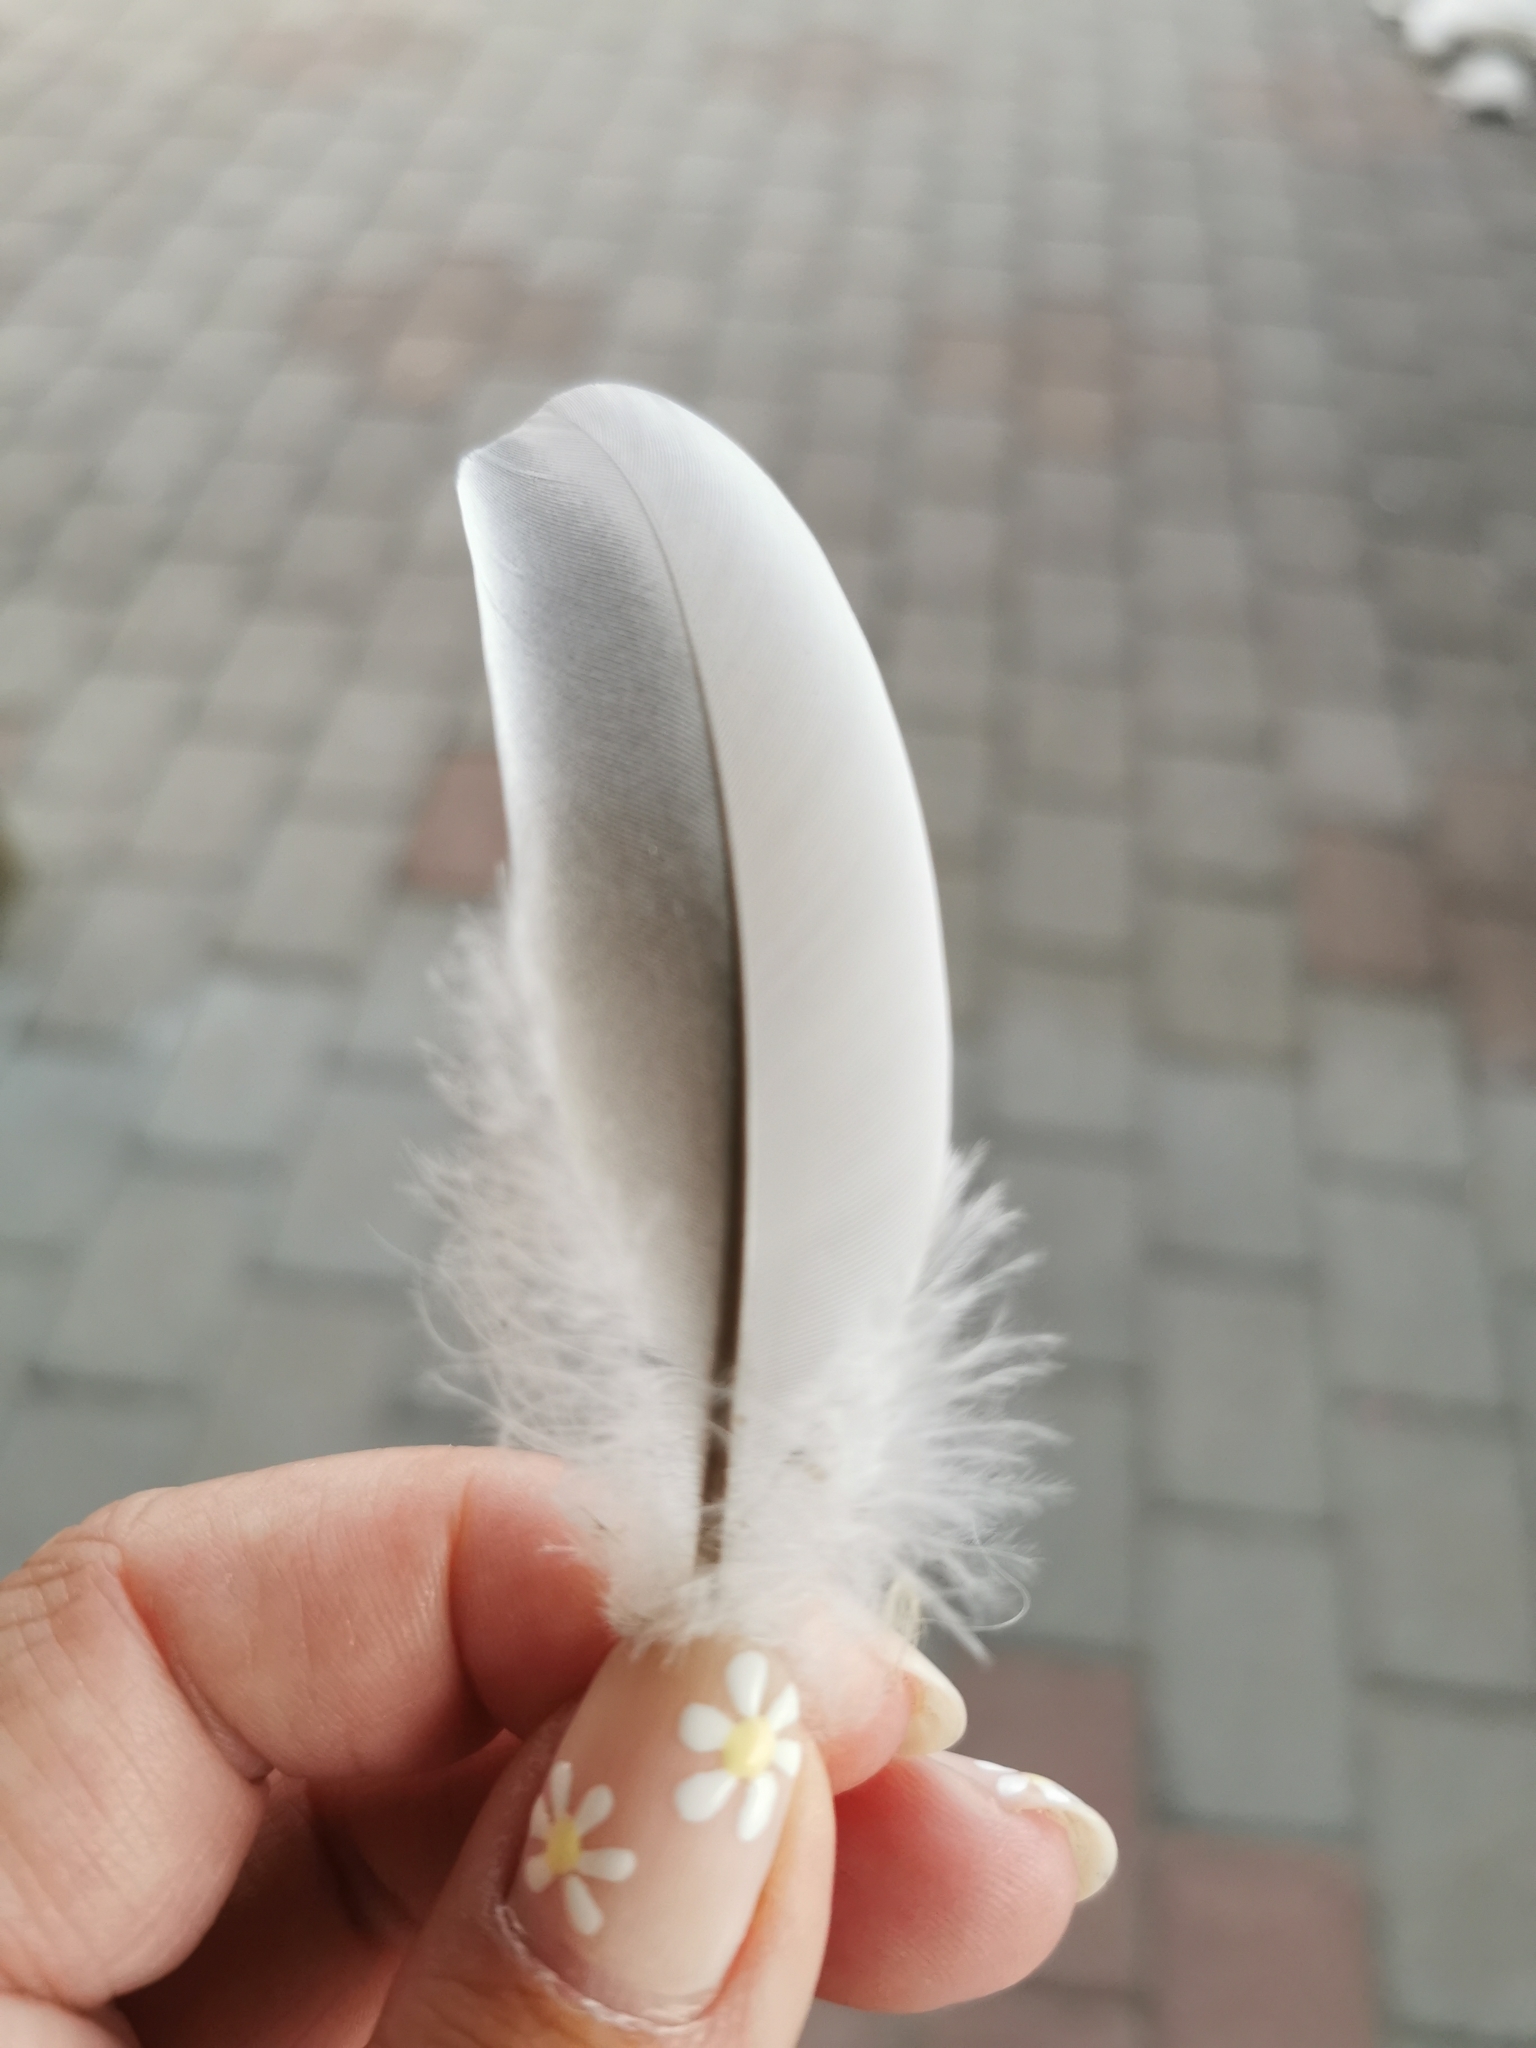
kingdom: Animalia
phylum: Chordata
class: Aves
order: Columbiformes
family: Columbidae
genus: Columba
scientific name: Columba palumbus
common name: Common wood pigeon
